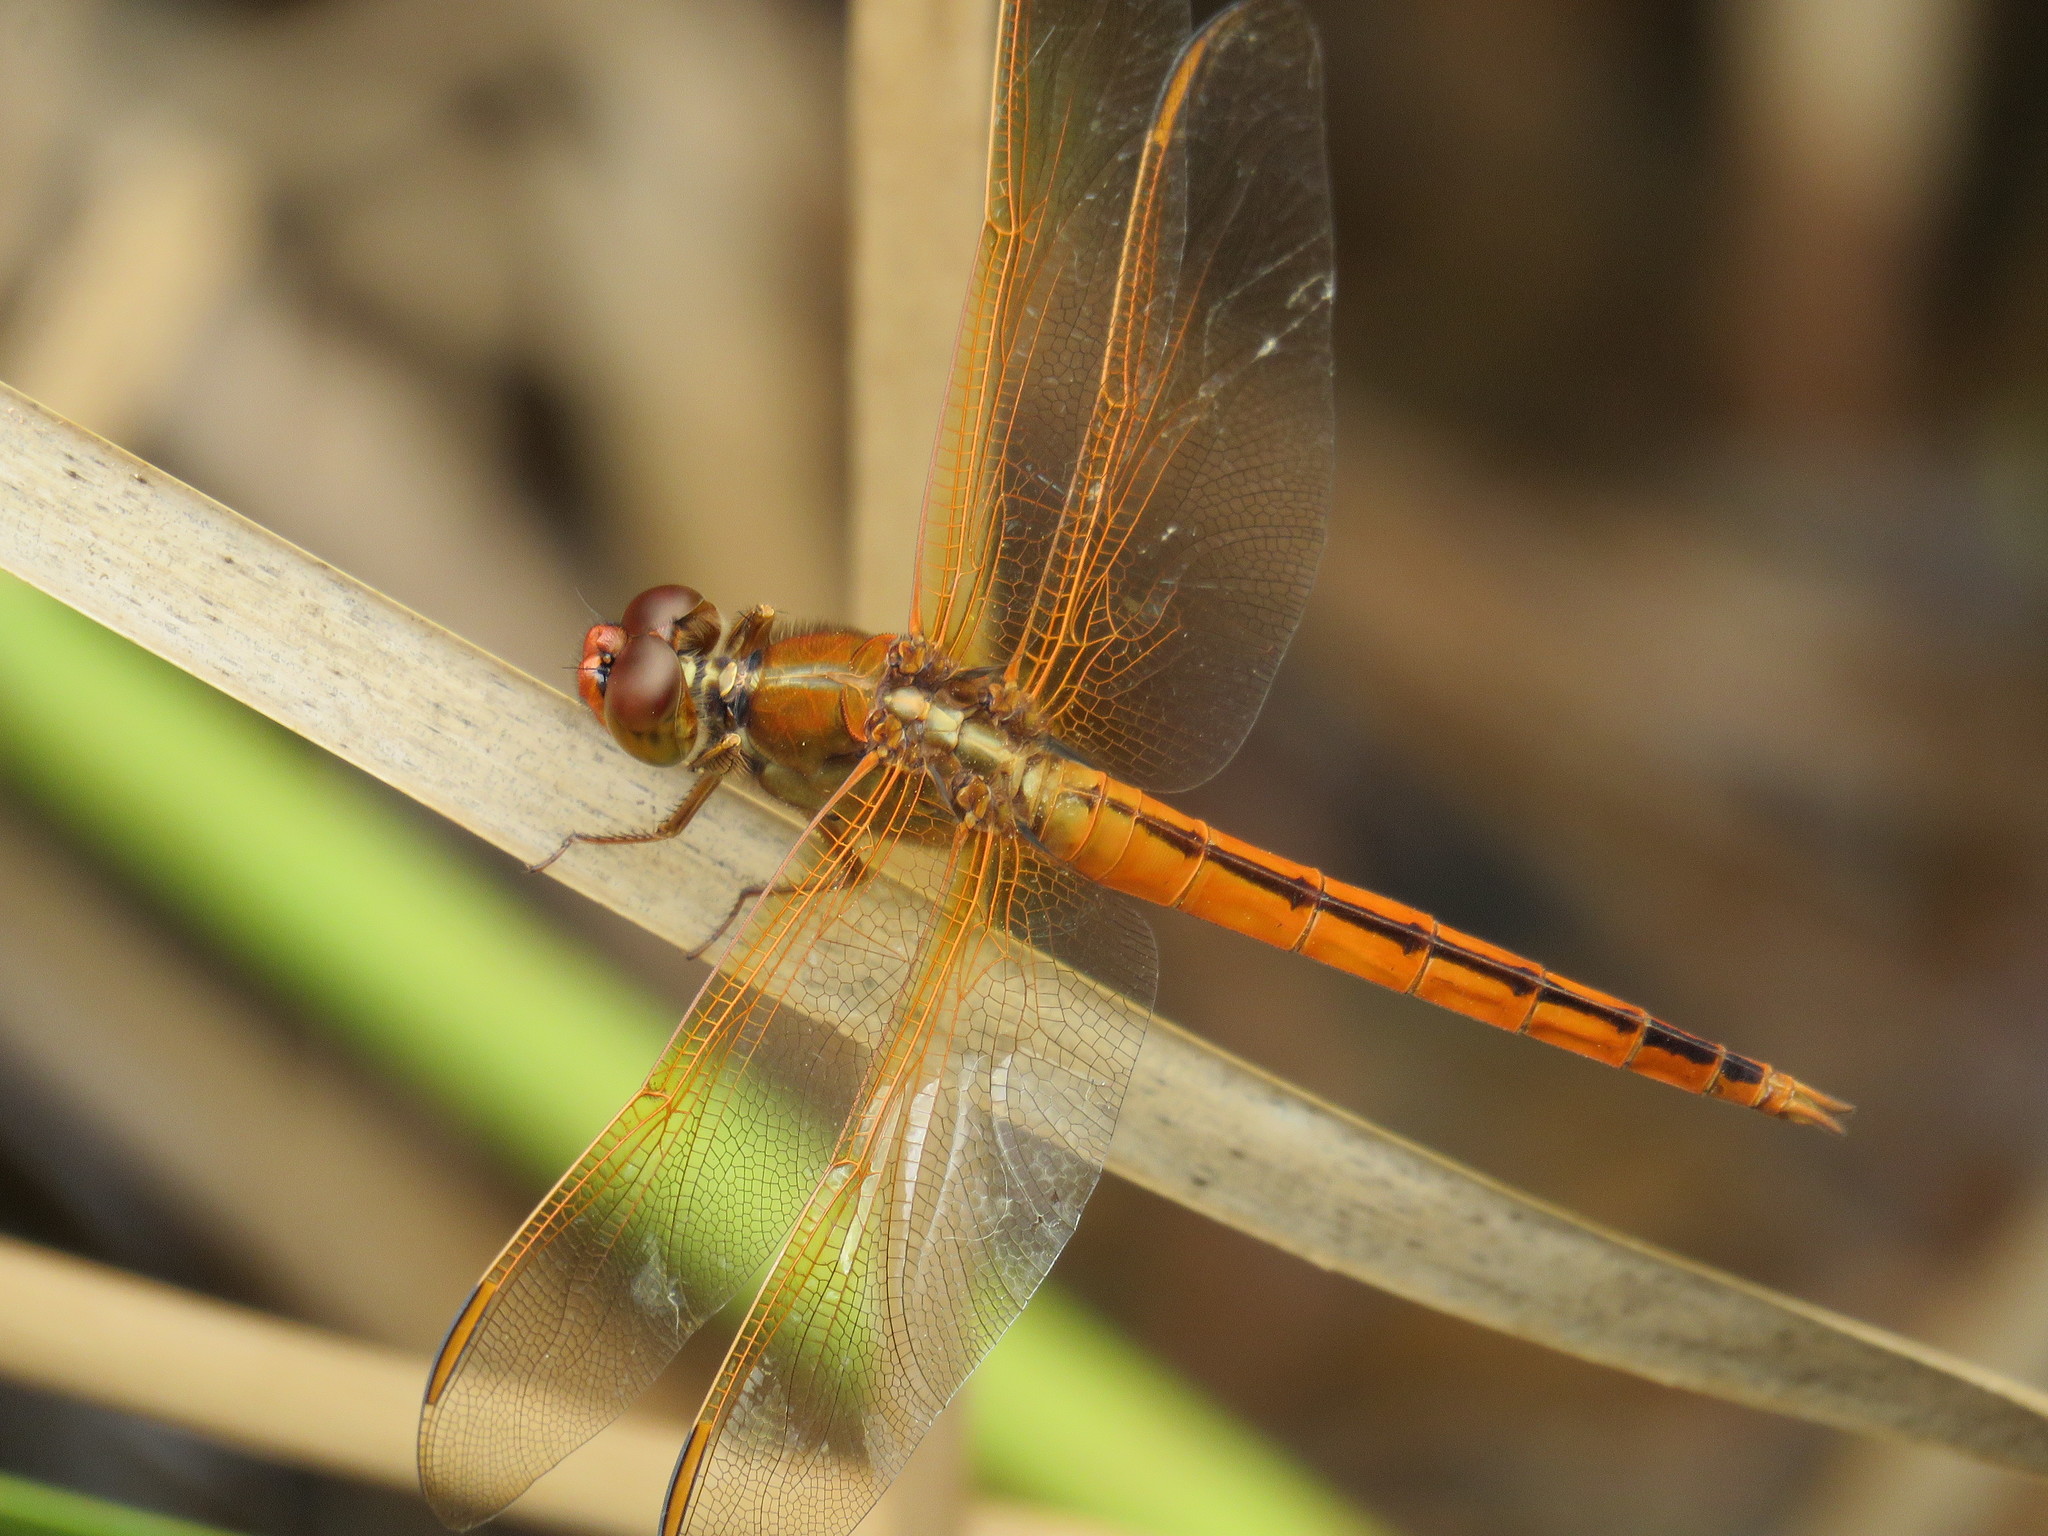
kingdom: Animalia
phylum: Arthropoda
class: Insecta
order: Odonata
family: Libellulidae
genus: Libellula
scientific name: Libellula auripennis
